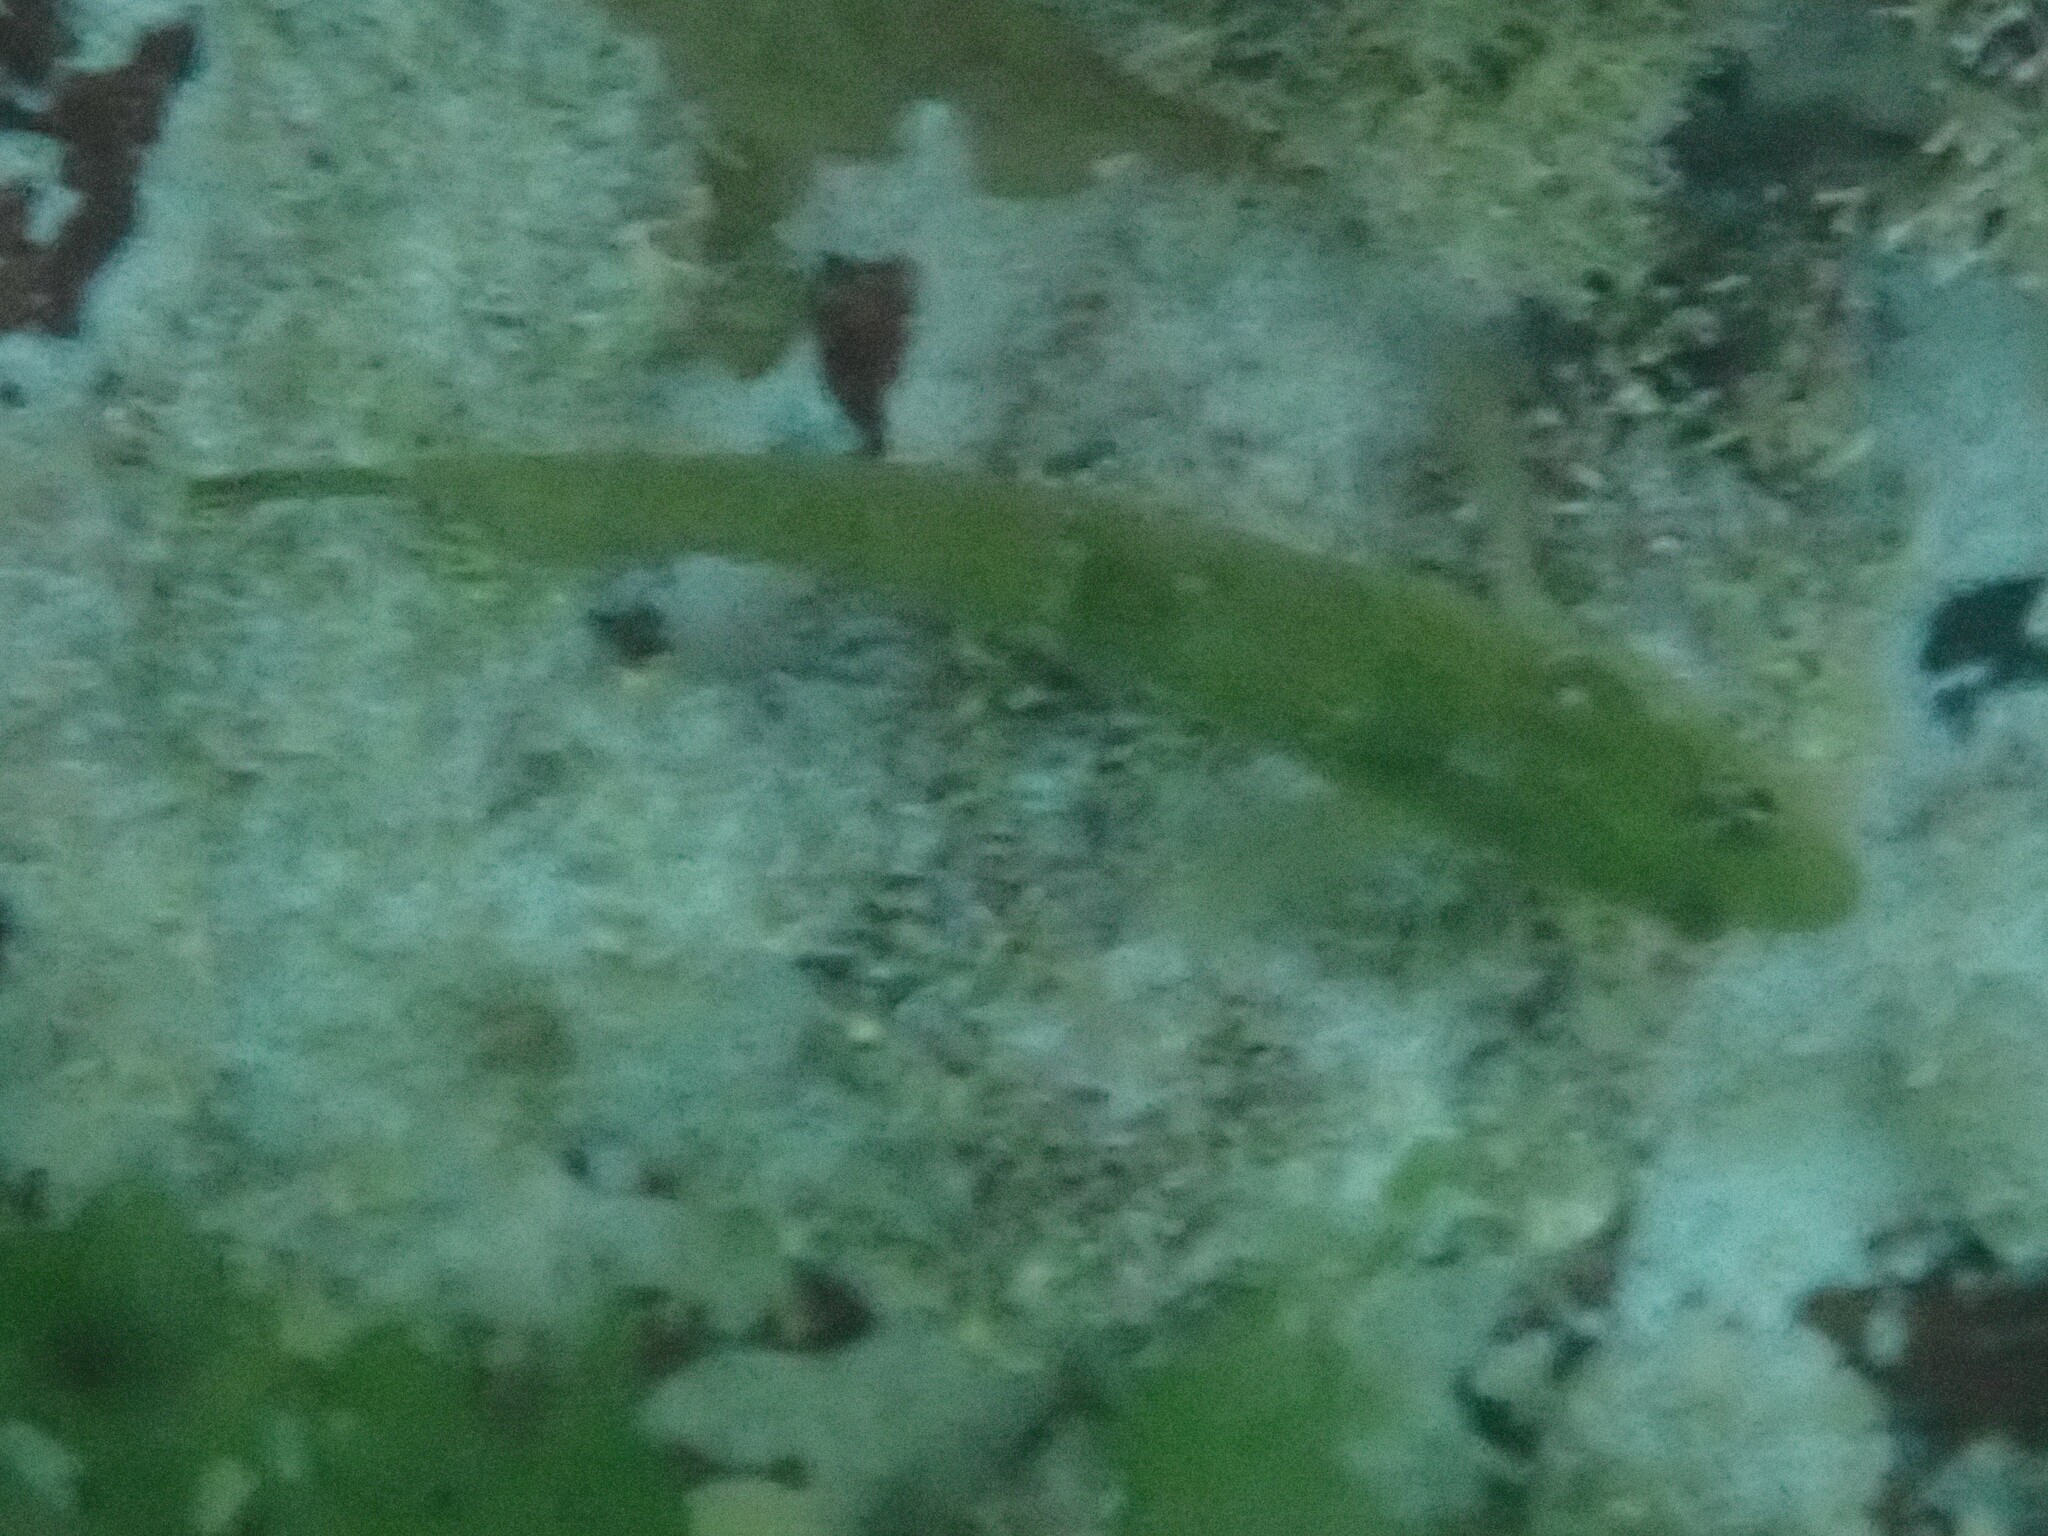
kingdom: Animalia
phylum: Chordata
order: Perciformes
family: Clinidae
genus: Clinus
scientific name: Clinus superciliosus
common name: Super klipfish
